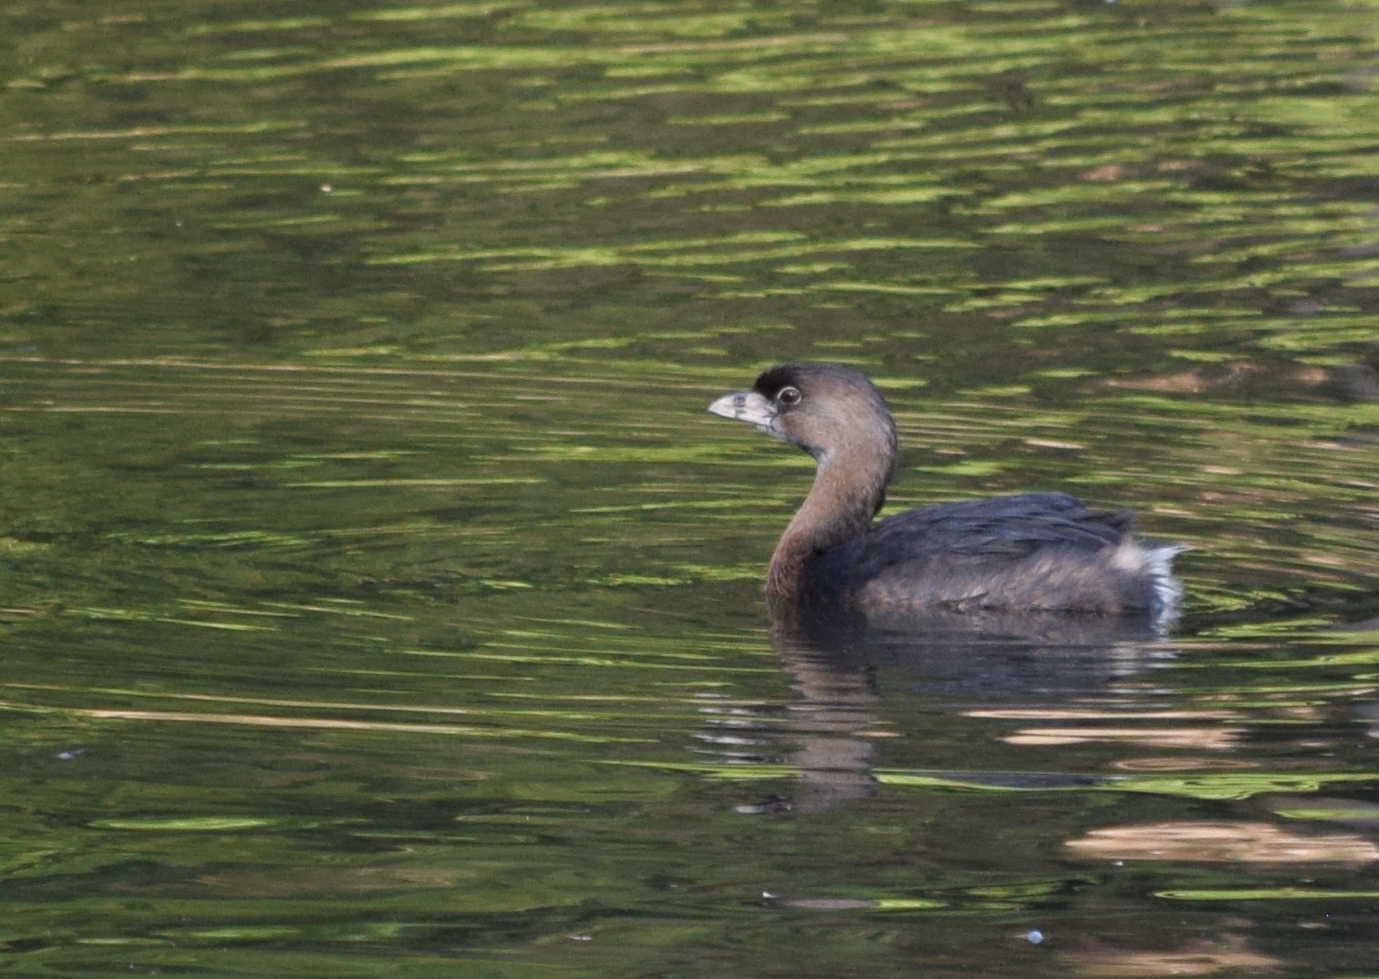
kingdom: Animalia
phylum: Chordata
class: Aves
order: Podicipediformes
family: Podicipedidae
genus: Podilymbus
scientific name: Podilymbus podiceps
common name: Pied-billed grebe
